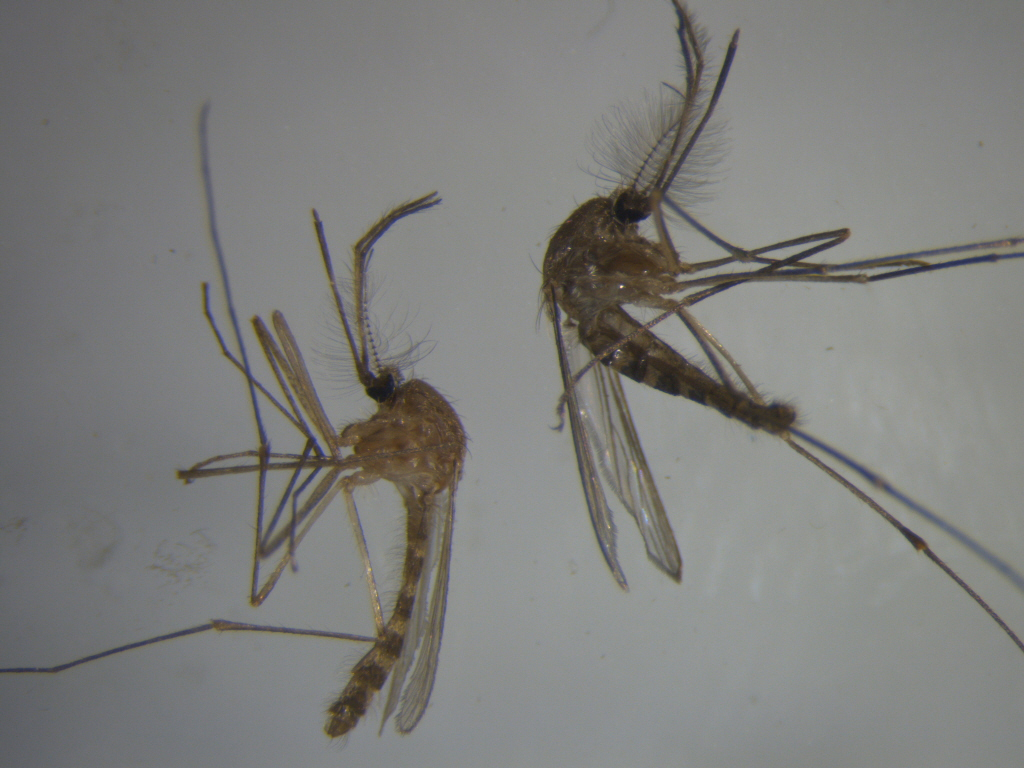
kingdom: Animalia
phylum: Arthropoda
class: Insecta
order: Diptera
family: Culicidae
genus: Culex
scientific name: Culex quinquefasciatus
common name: Southern house mosquito
